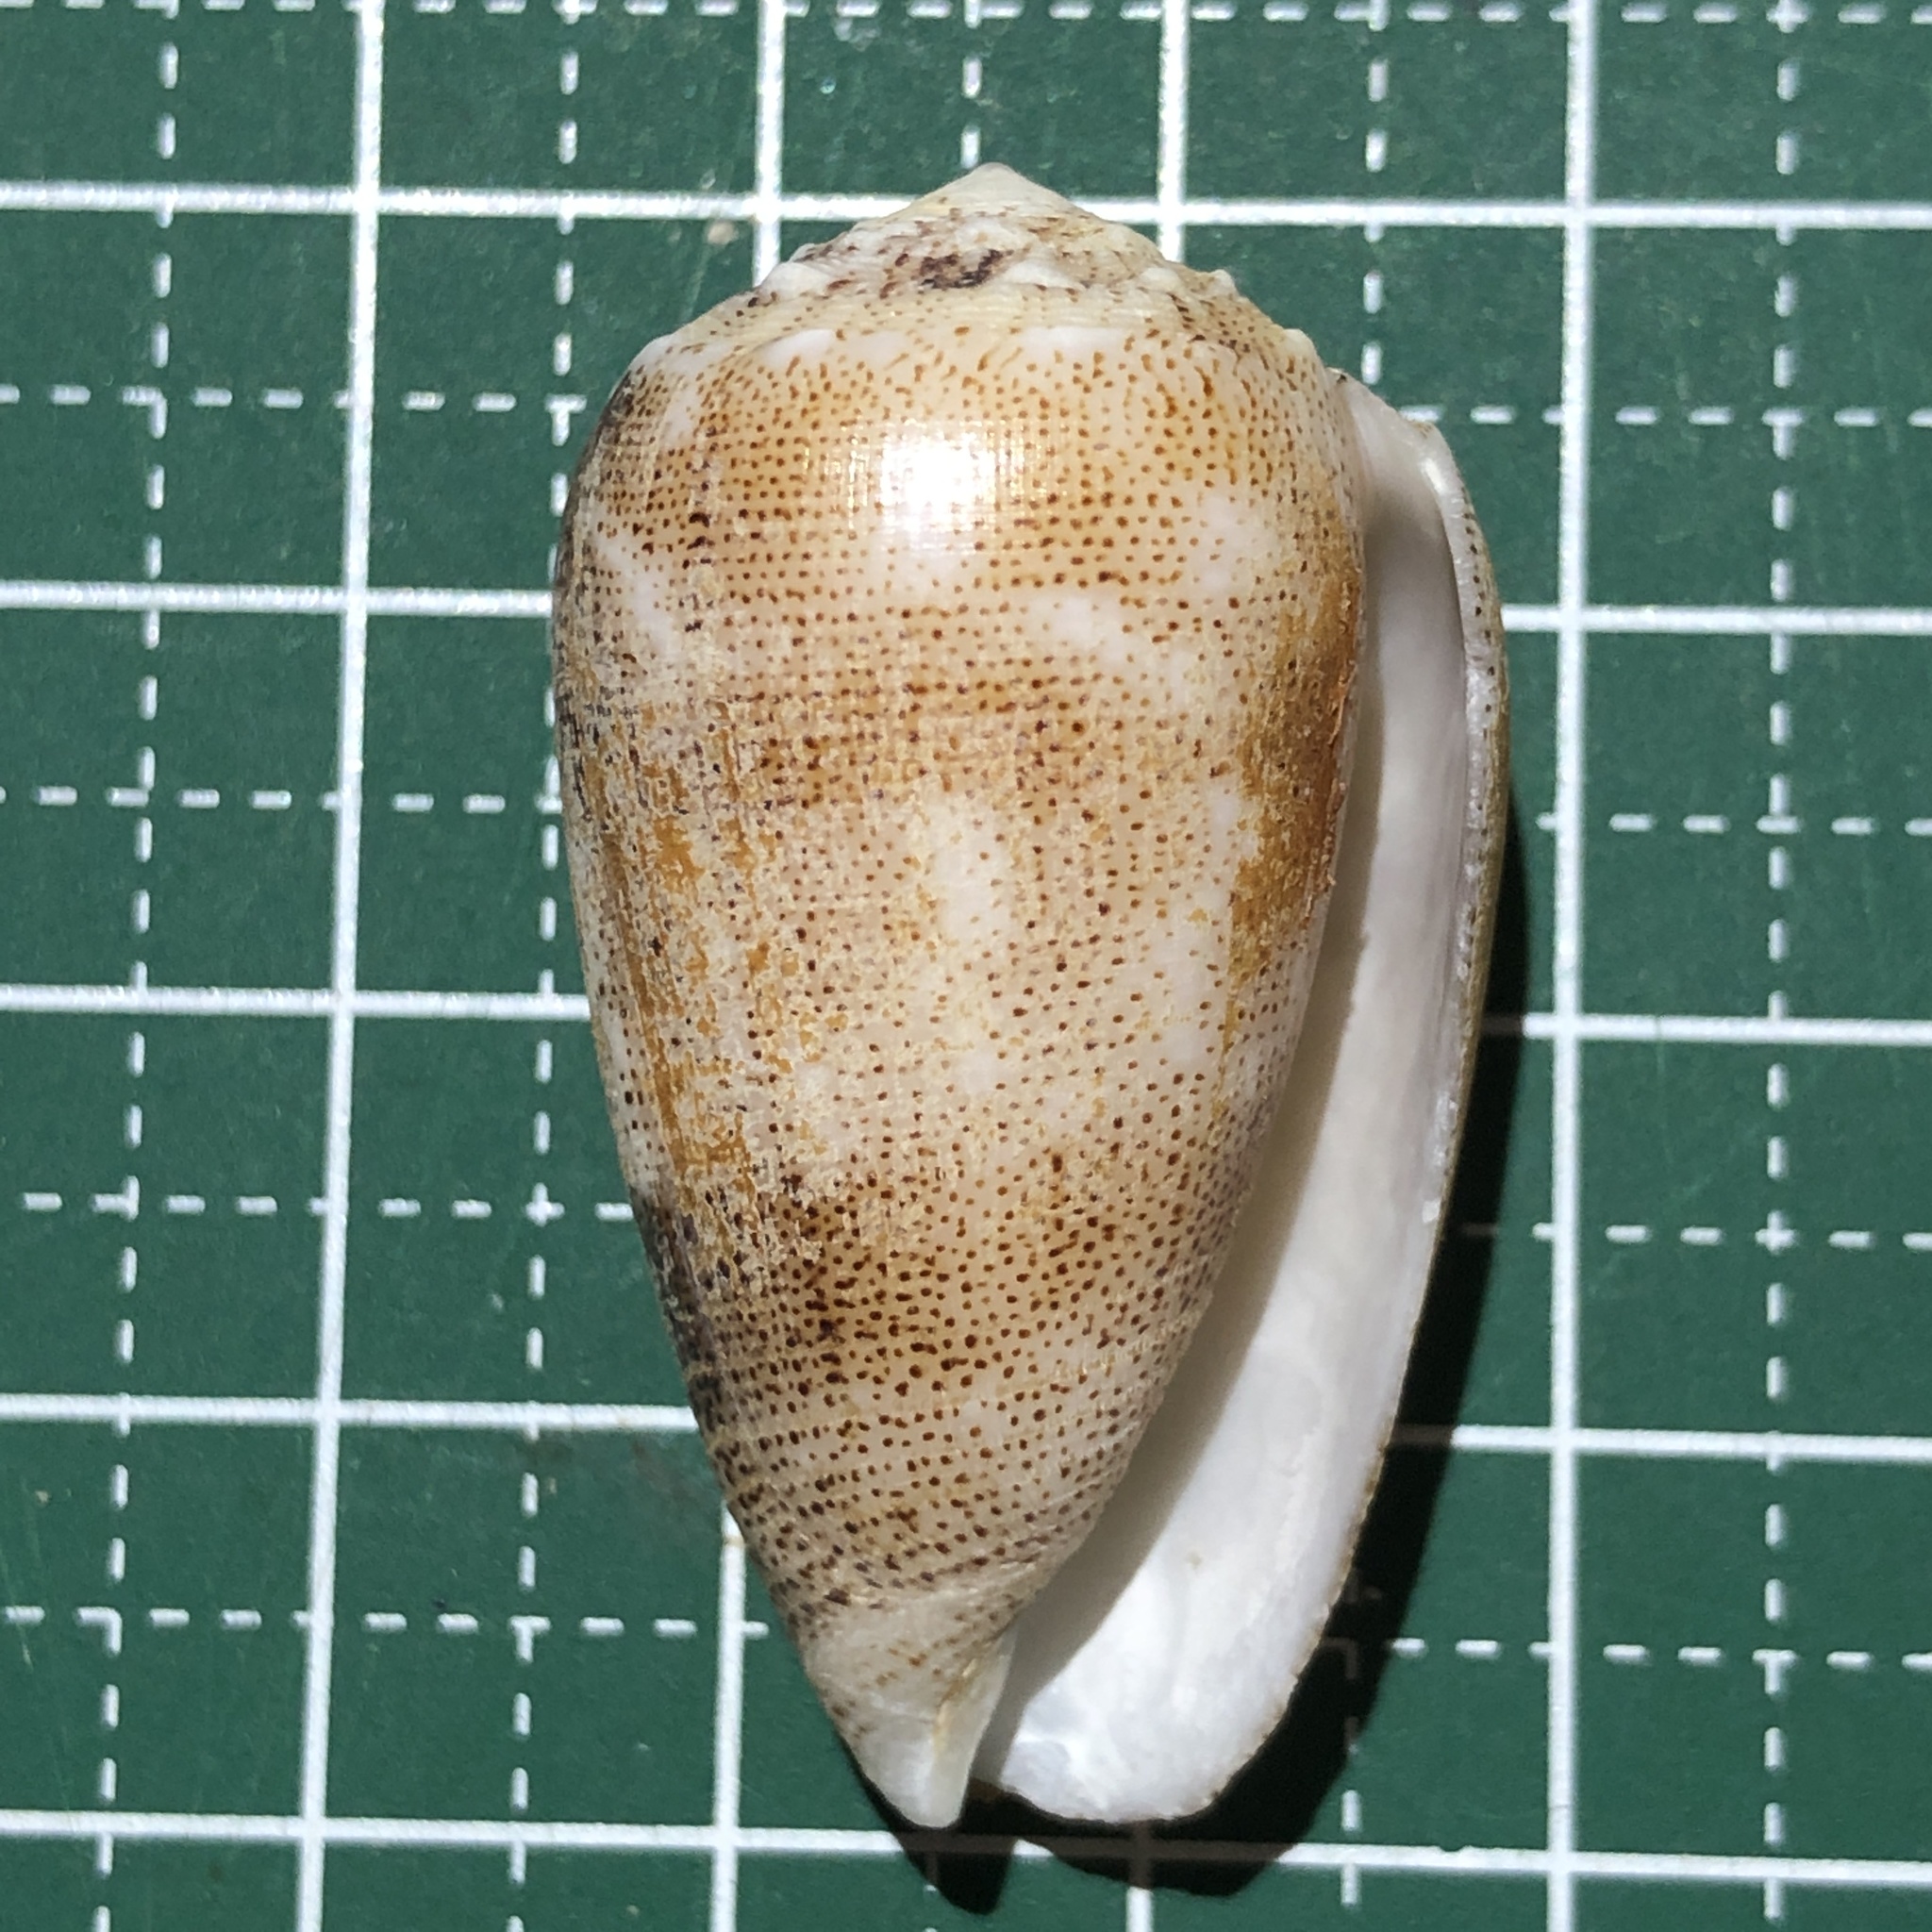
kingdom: Animalia
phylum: Mollusca
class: Gastropoda
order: Neogastropoda
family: Conidae
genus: Conus
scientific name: Conus arenatus
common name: Sand-dusted cone
